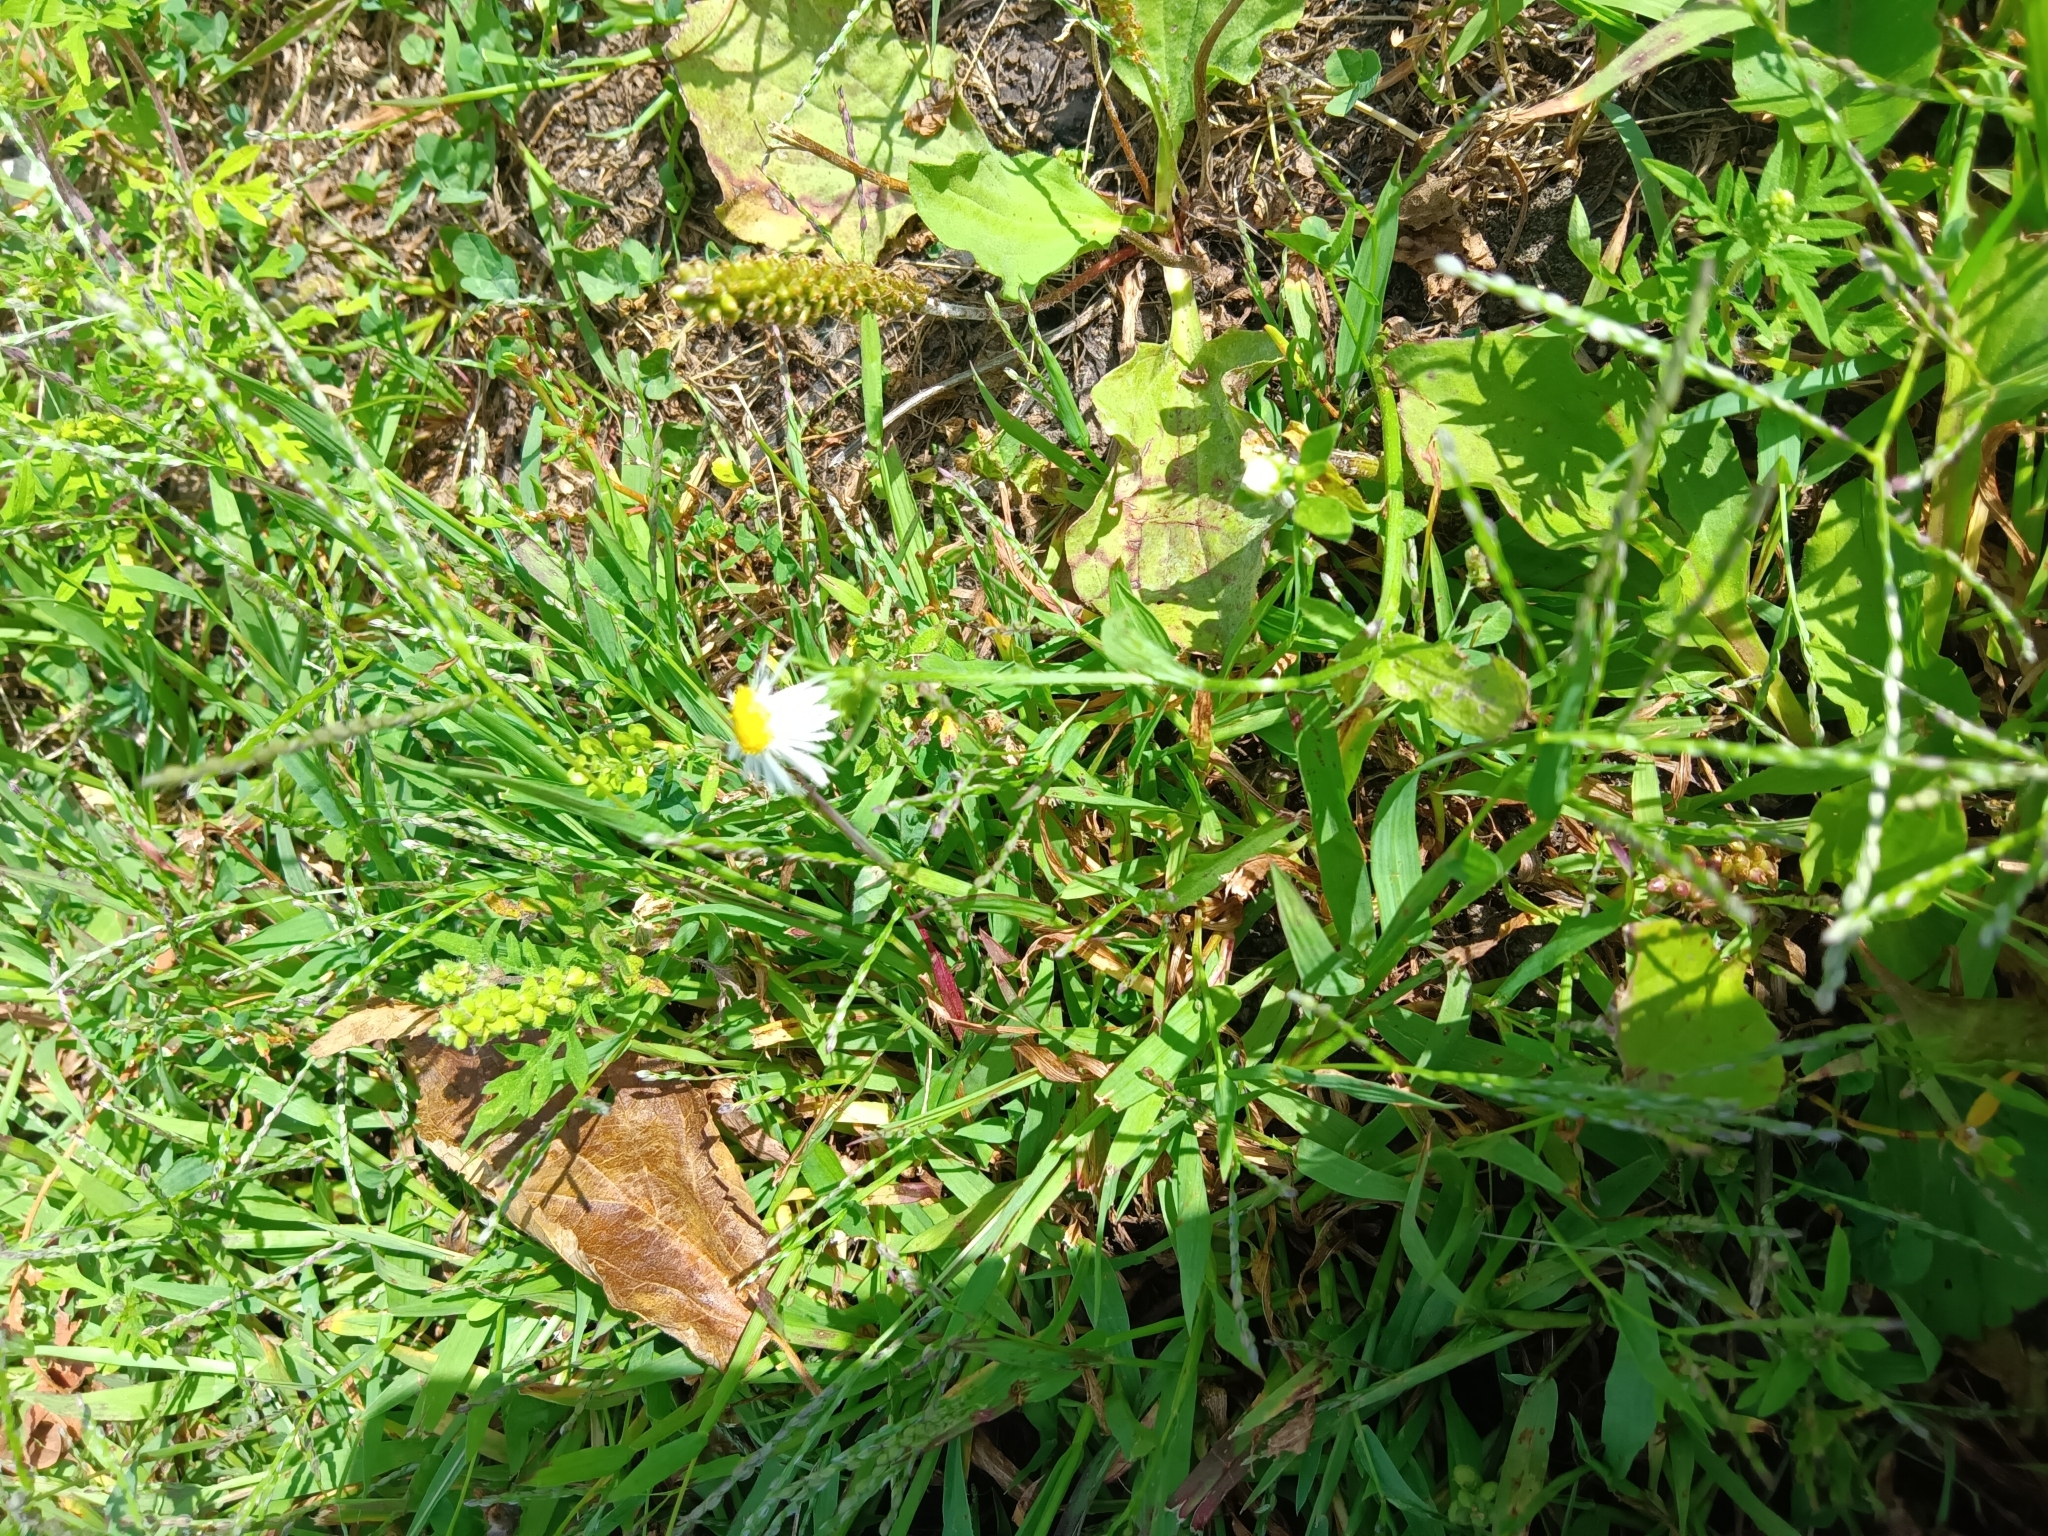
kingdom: Plantae
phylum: Tracheophyta
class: Magnoliopsida
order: Asterales
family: Asteraceae
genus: Erigeron
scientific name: Erigeron strigosus
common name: Common eastern fleabane
